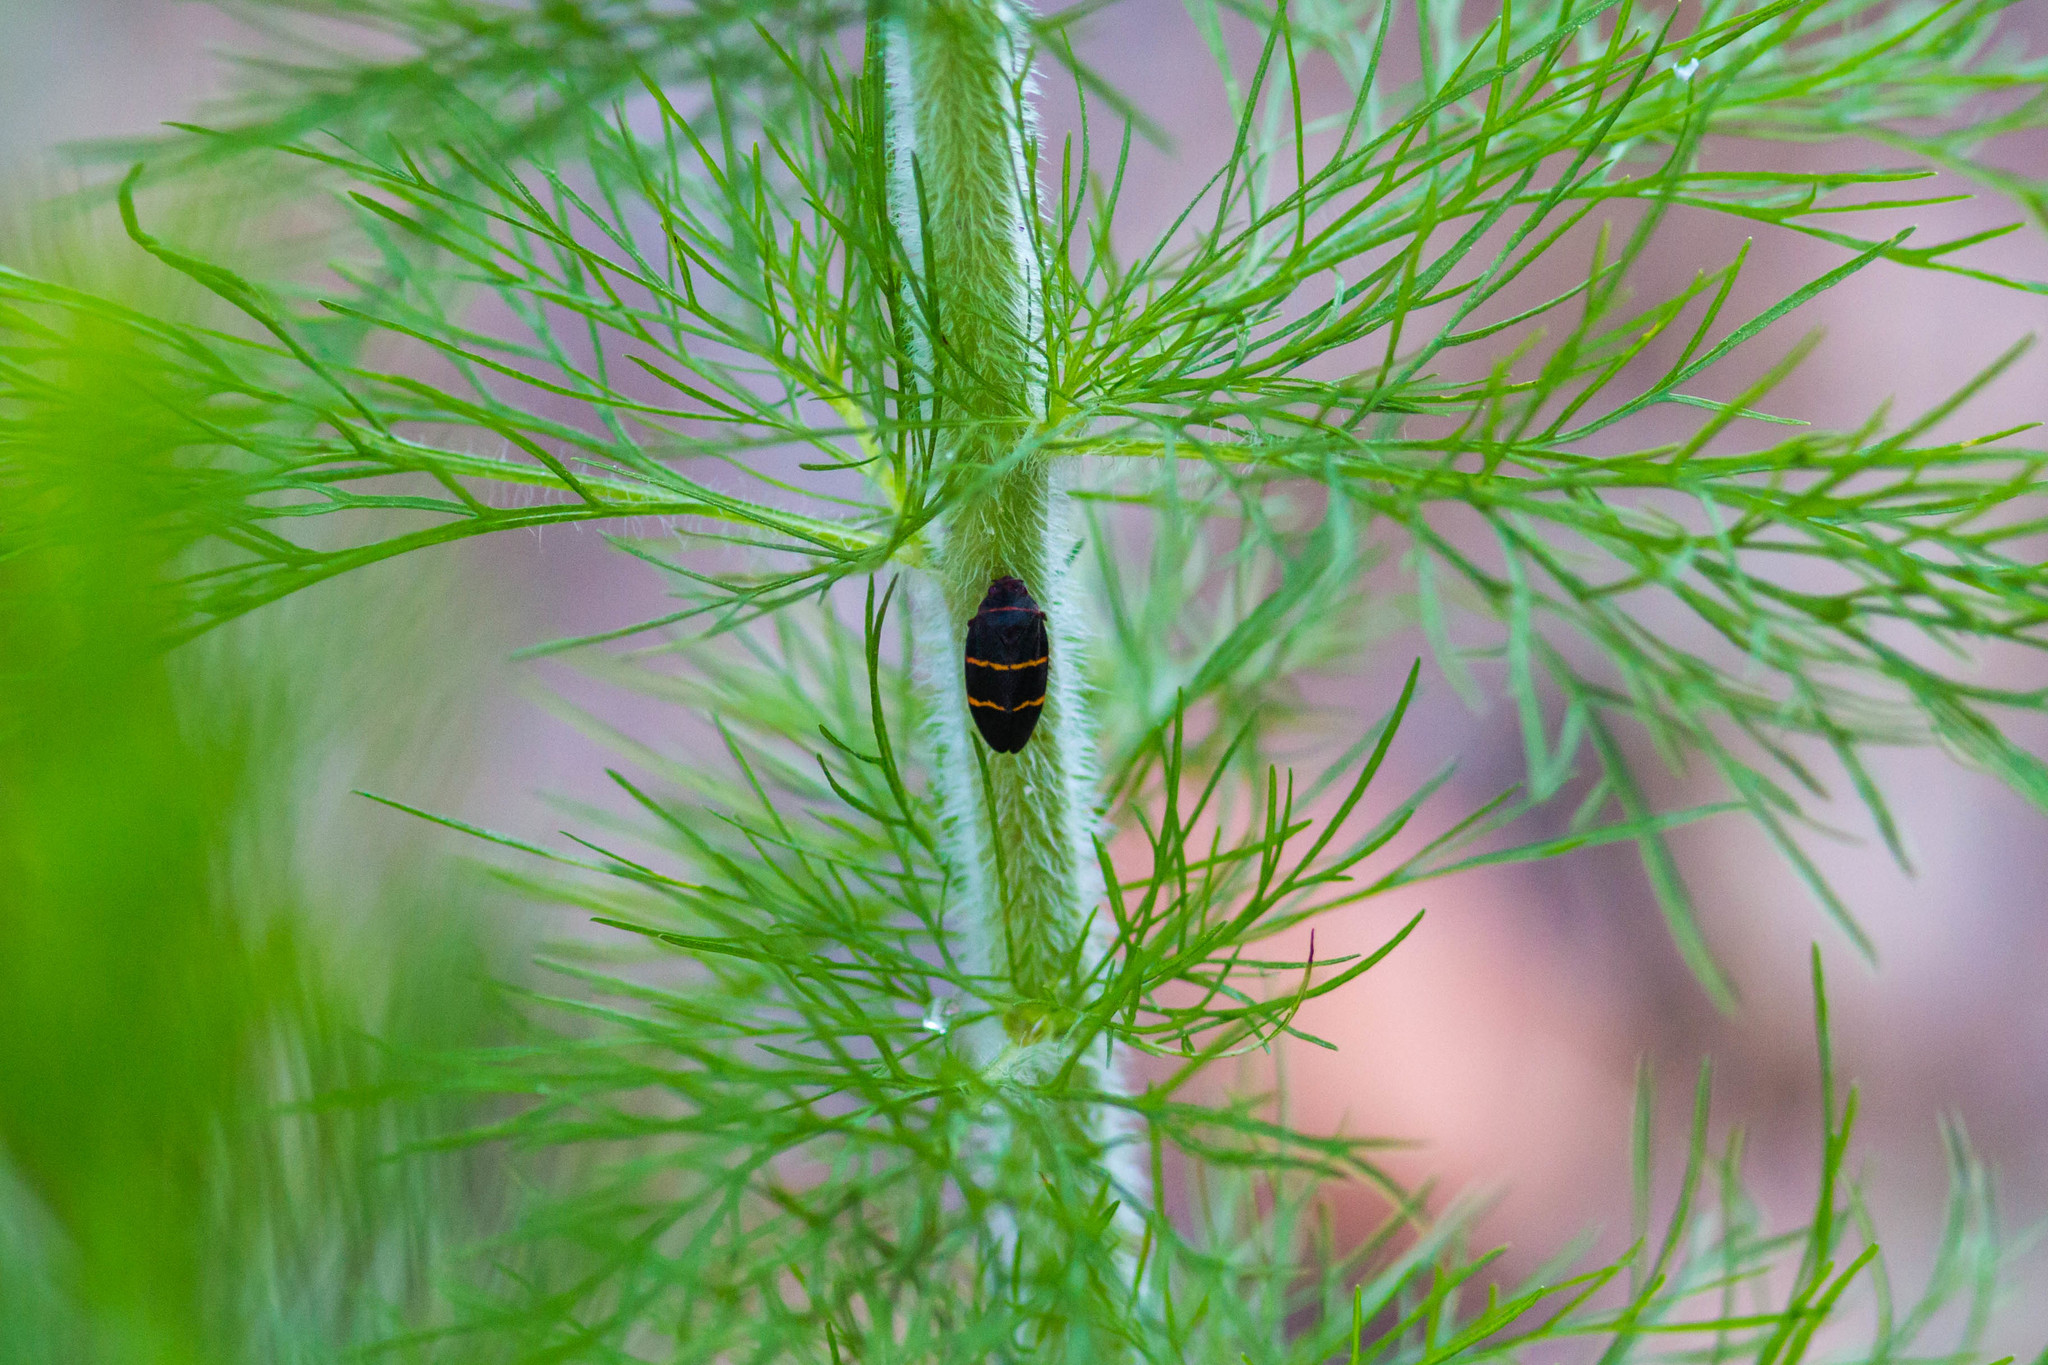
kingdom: Animalia
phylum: Arthropoda
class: Insecta
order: Hemiptera
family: Cercopidae
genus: Prosapia
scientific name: Prosapia bicincta
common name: Twolined spittlebug
